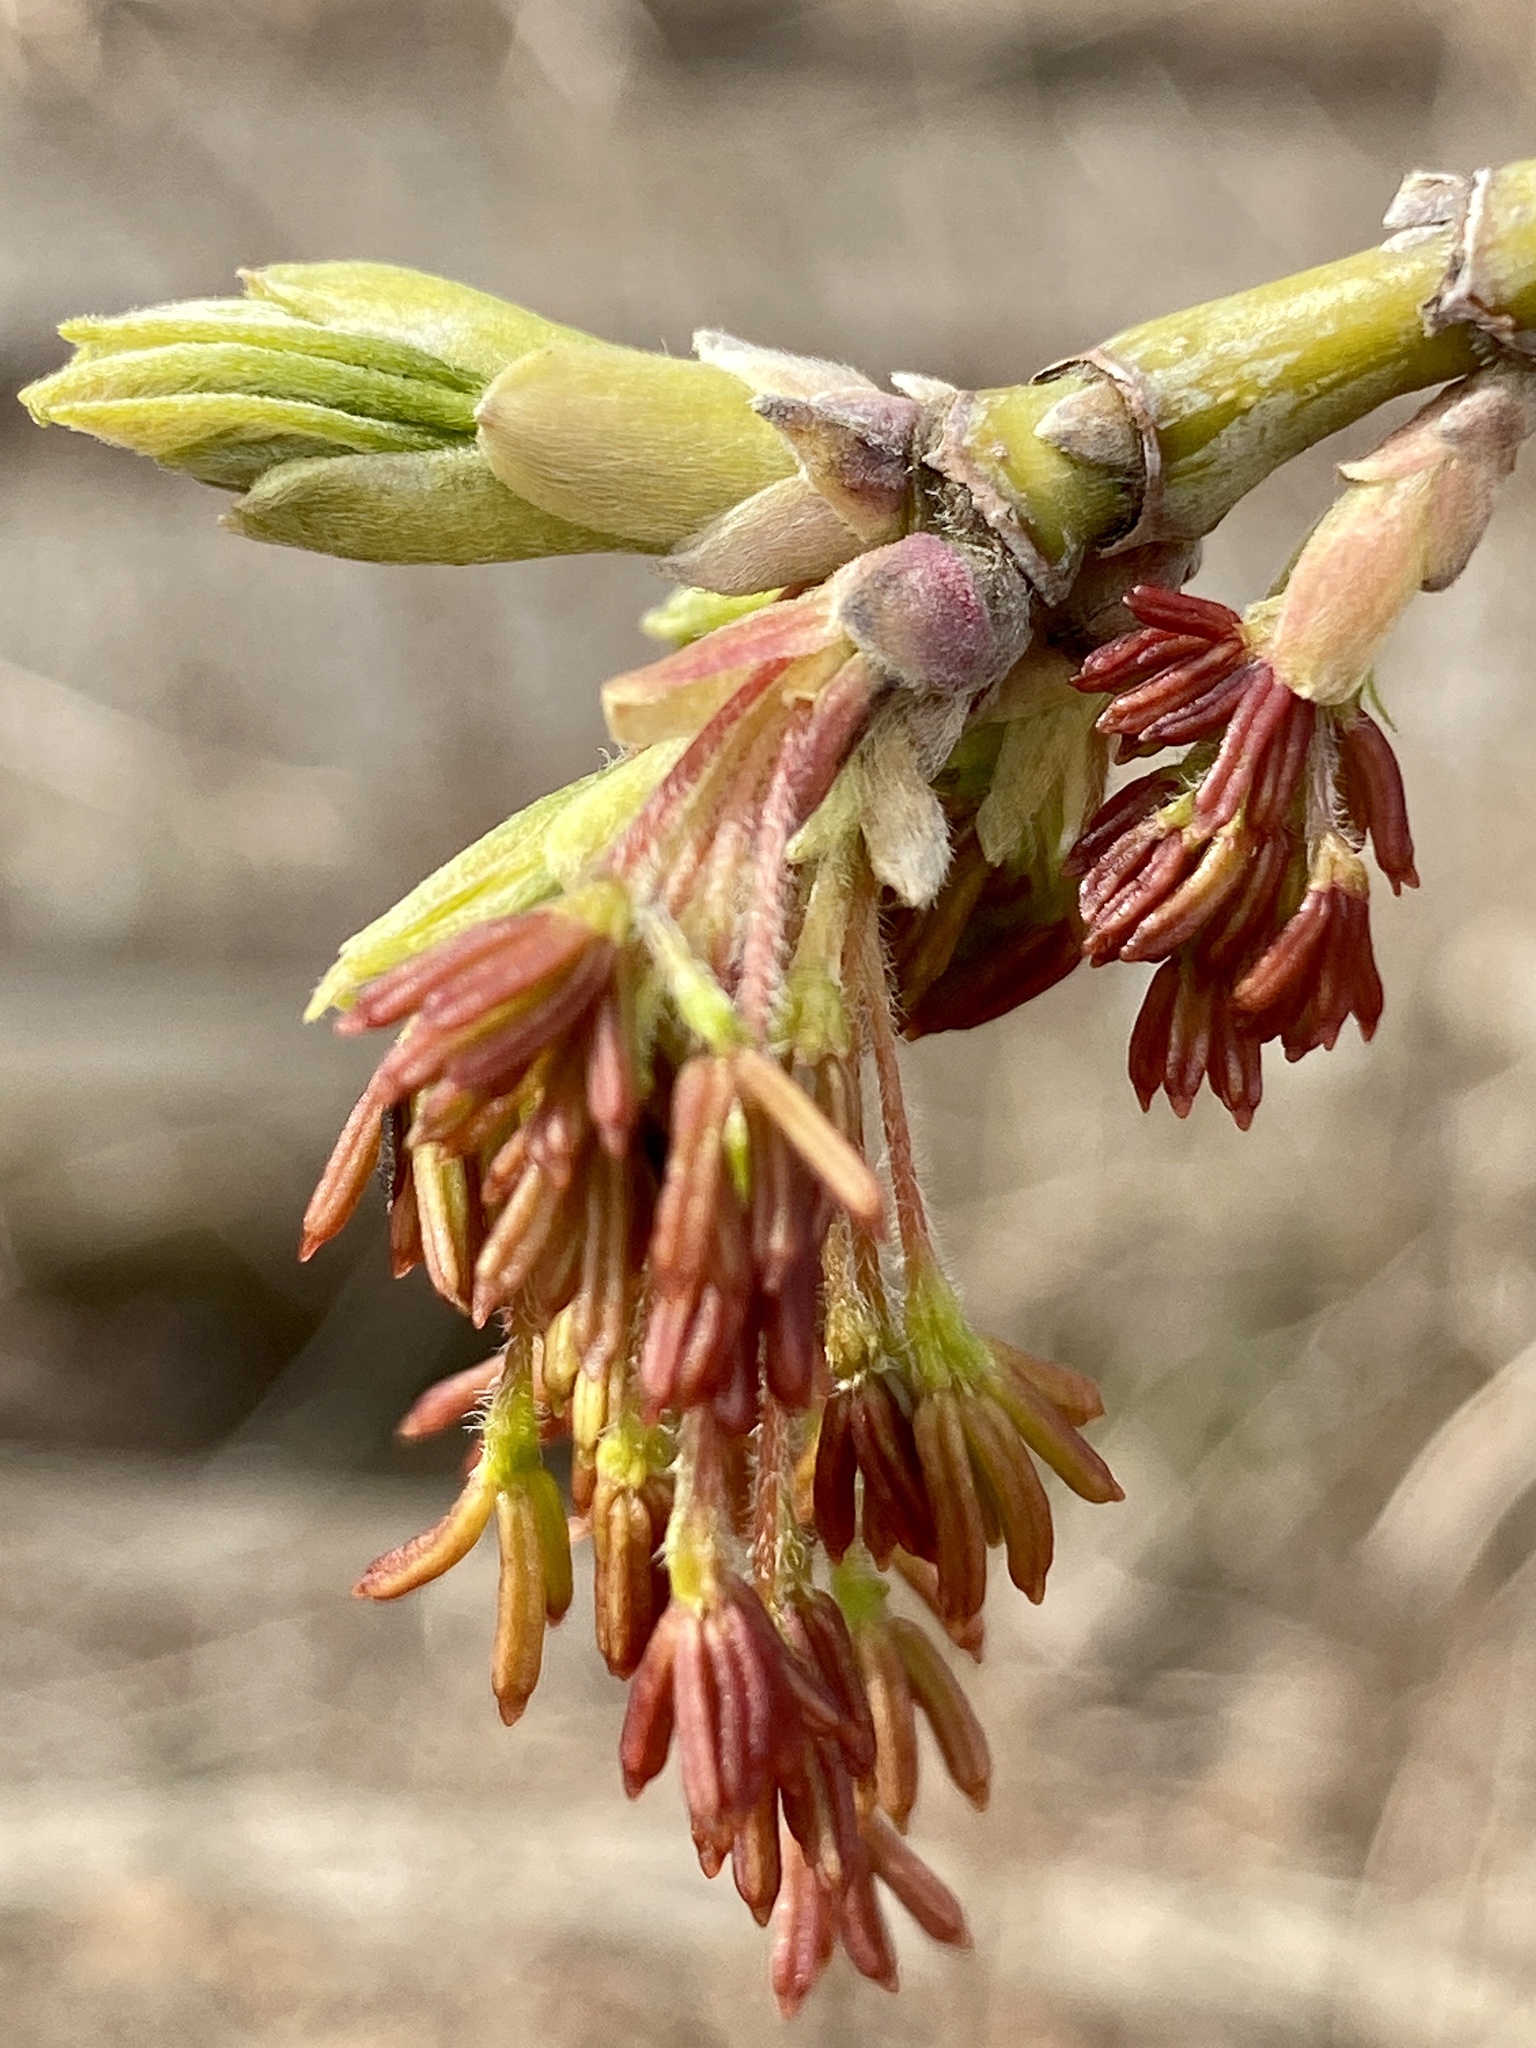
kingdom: Plantae
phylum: Tracheophyta
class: Magnoliopsida
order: Sapindales
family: Sapindaceae
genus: Acer
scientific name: Acer negundo
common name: Ashleaf maple
